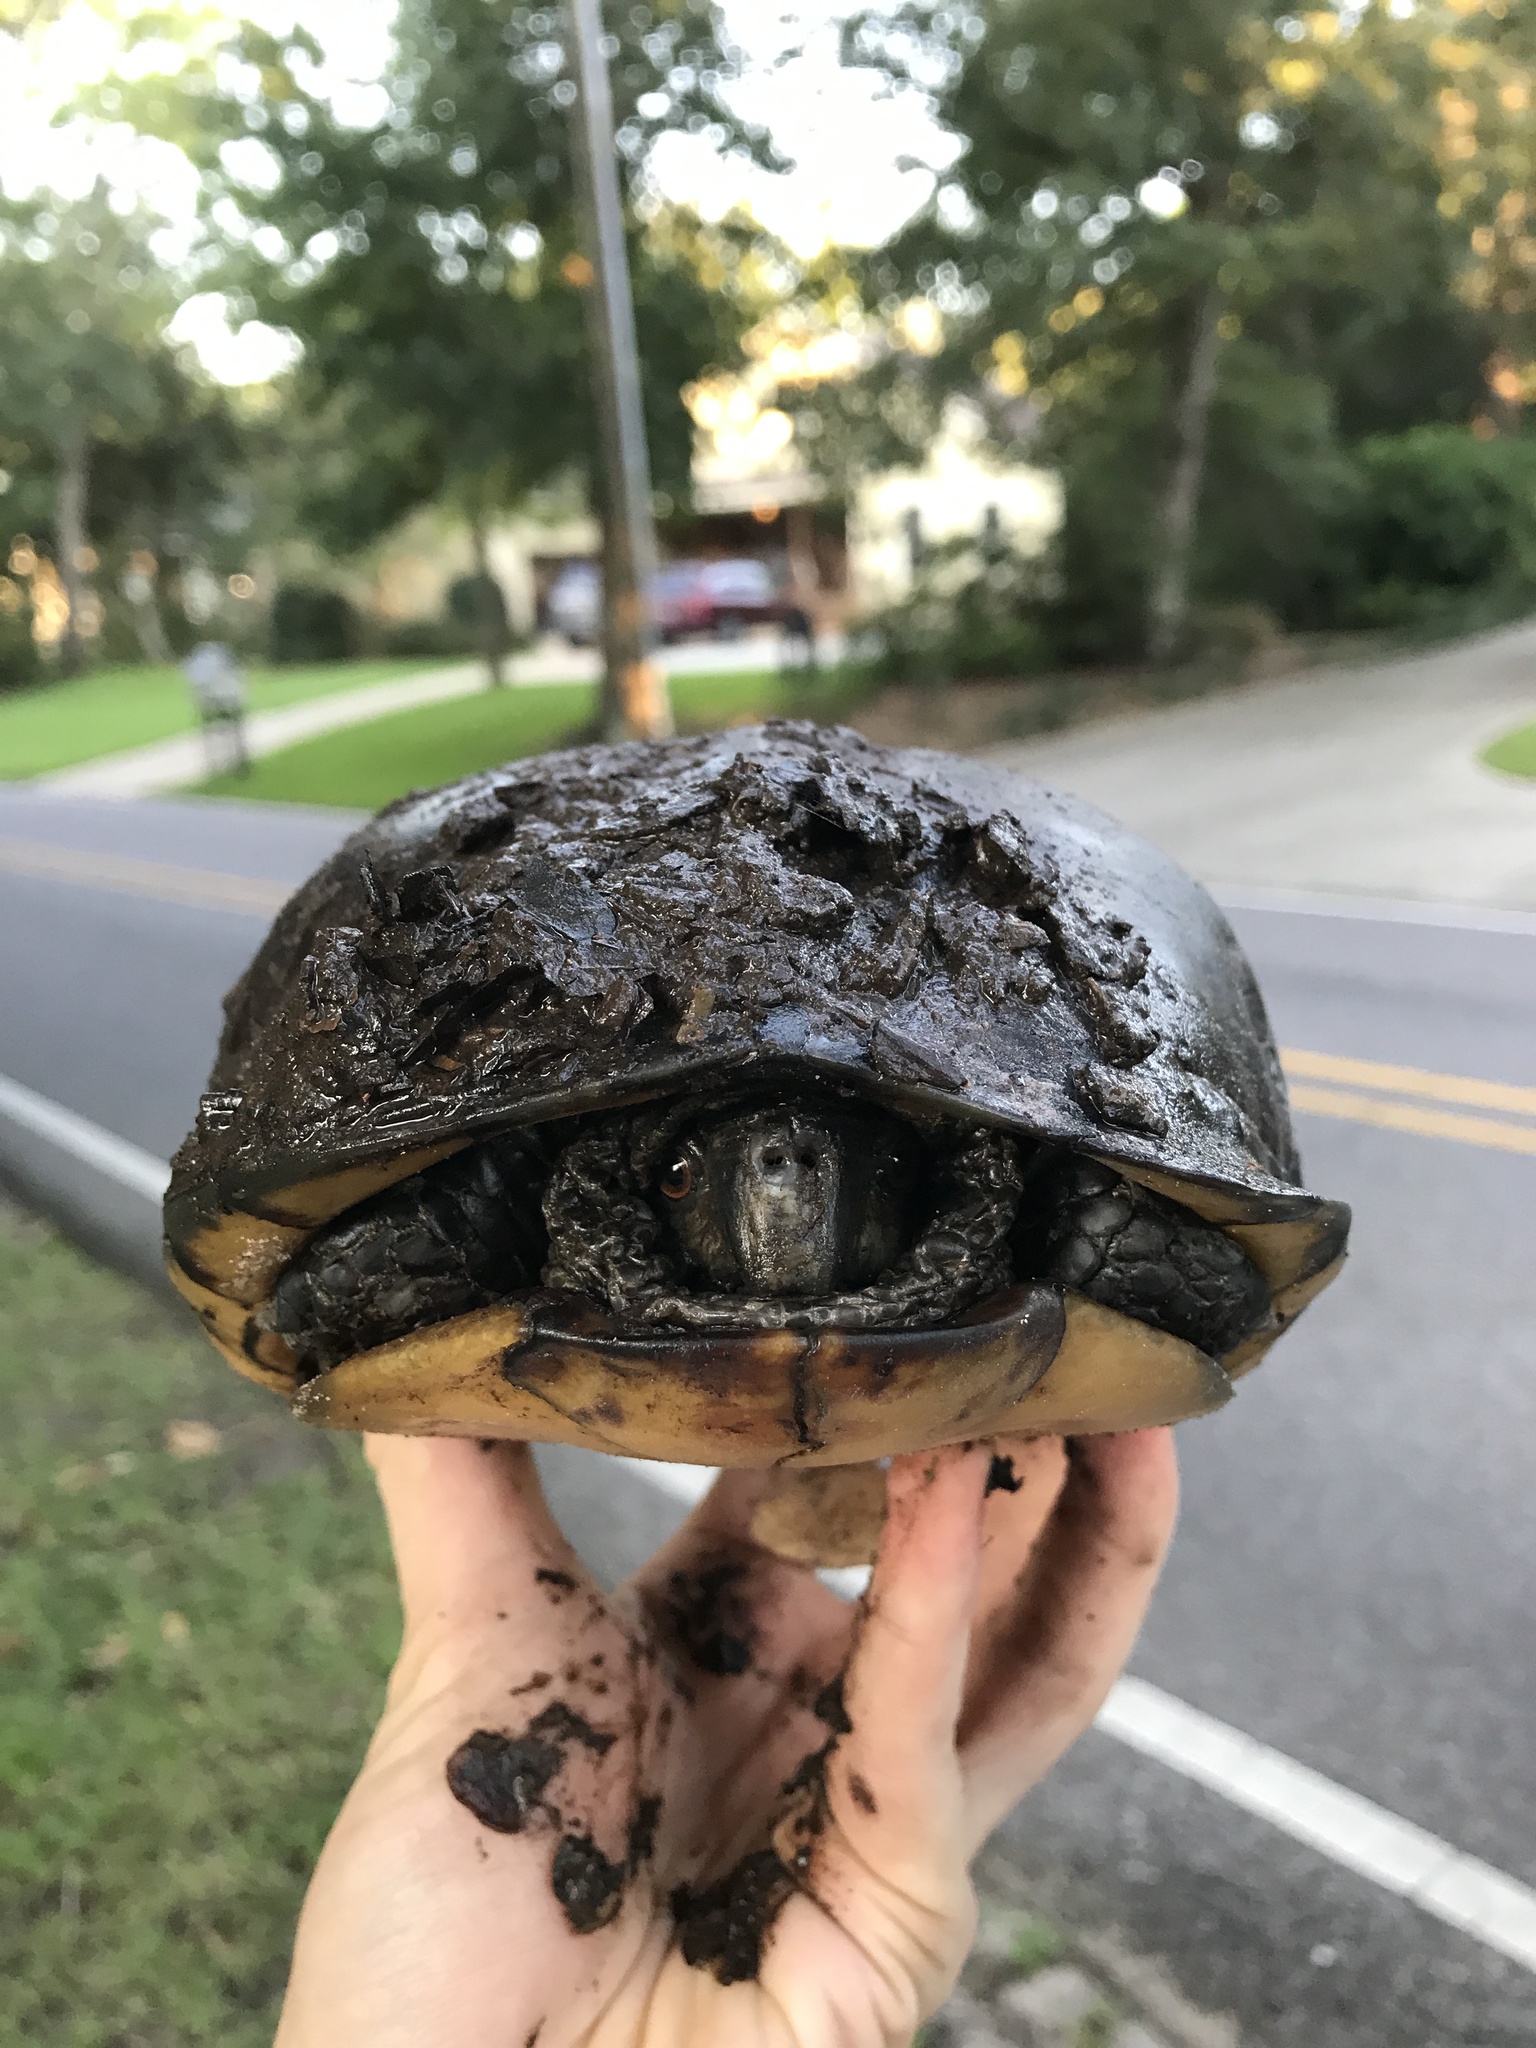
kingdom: Animalia
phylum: Chordata
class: Testudines
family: Emydidae
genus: Terrapene
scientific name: Terrapene carolina
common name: Common box turtle
